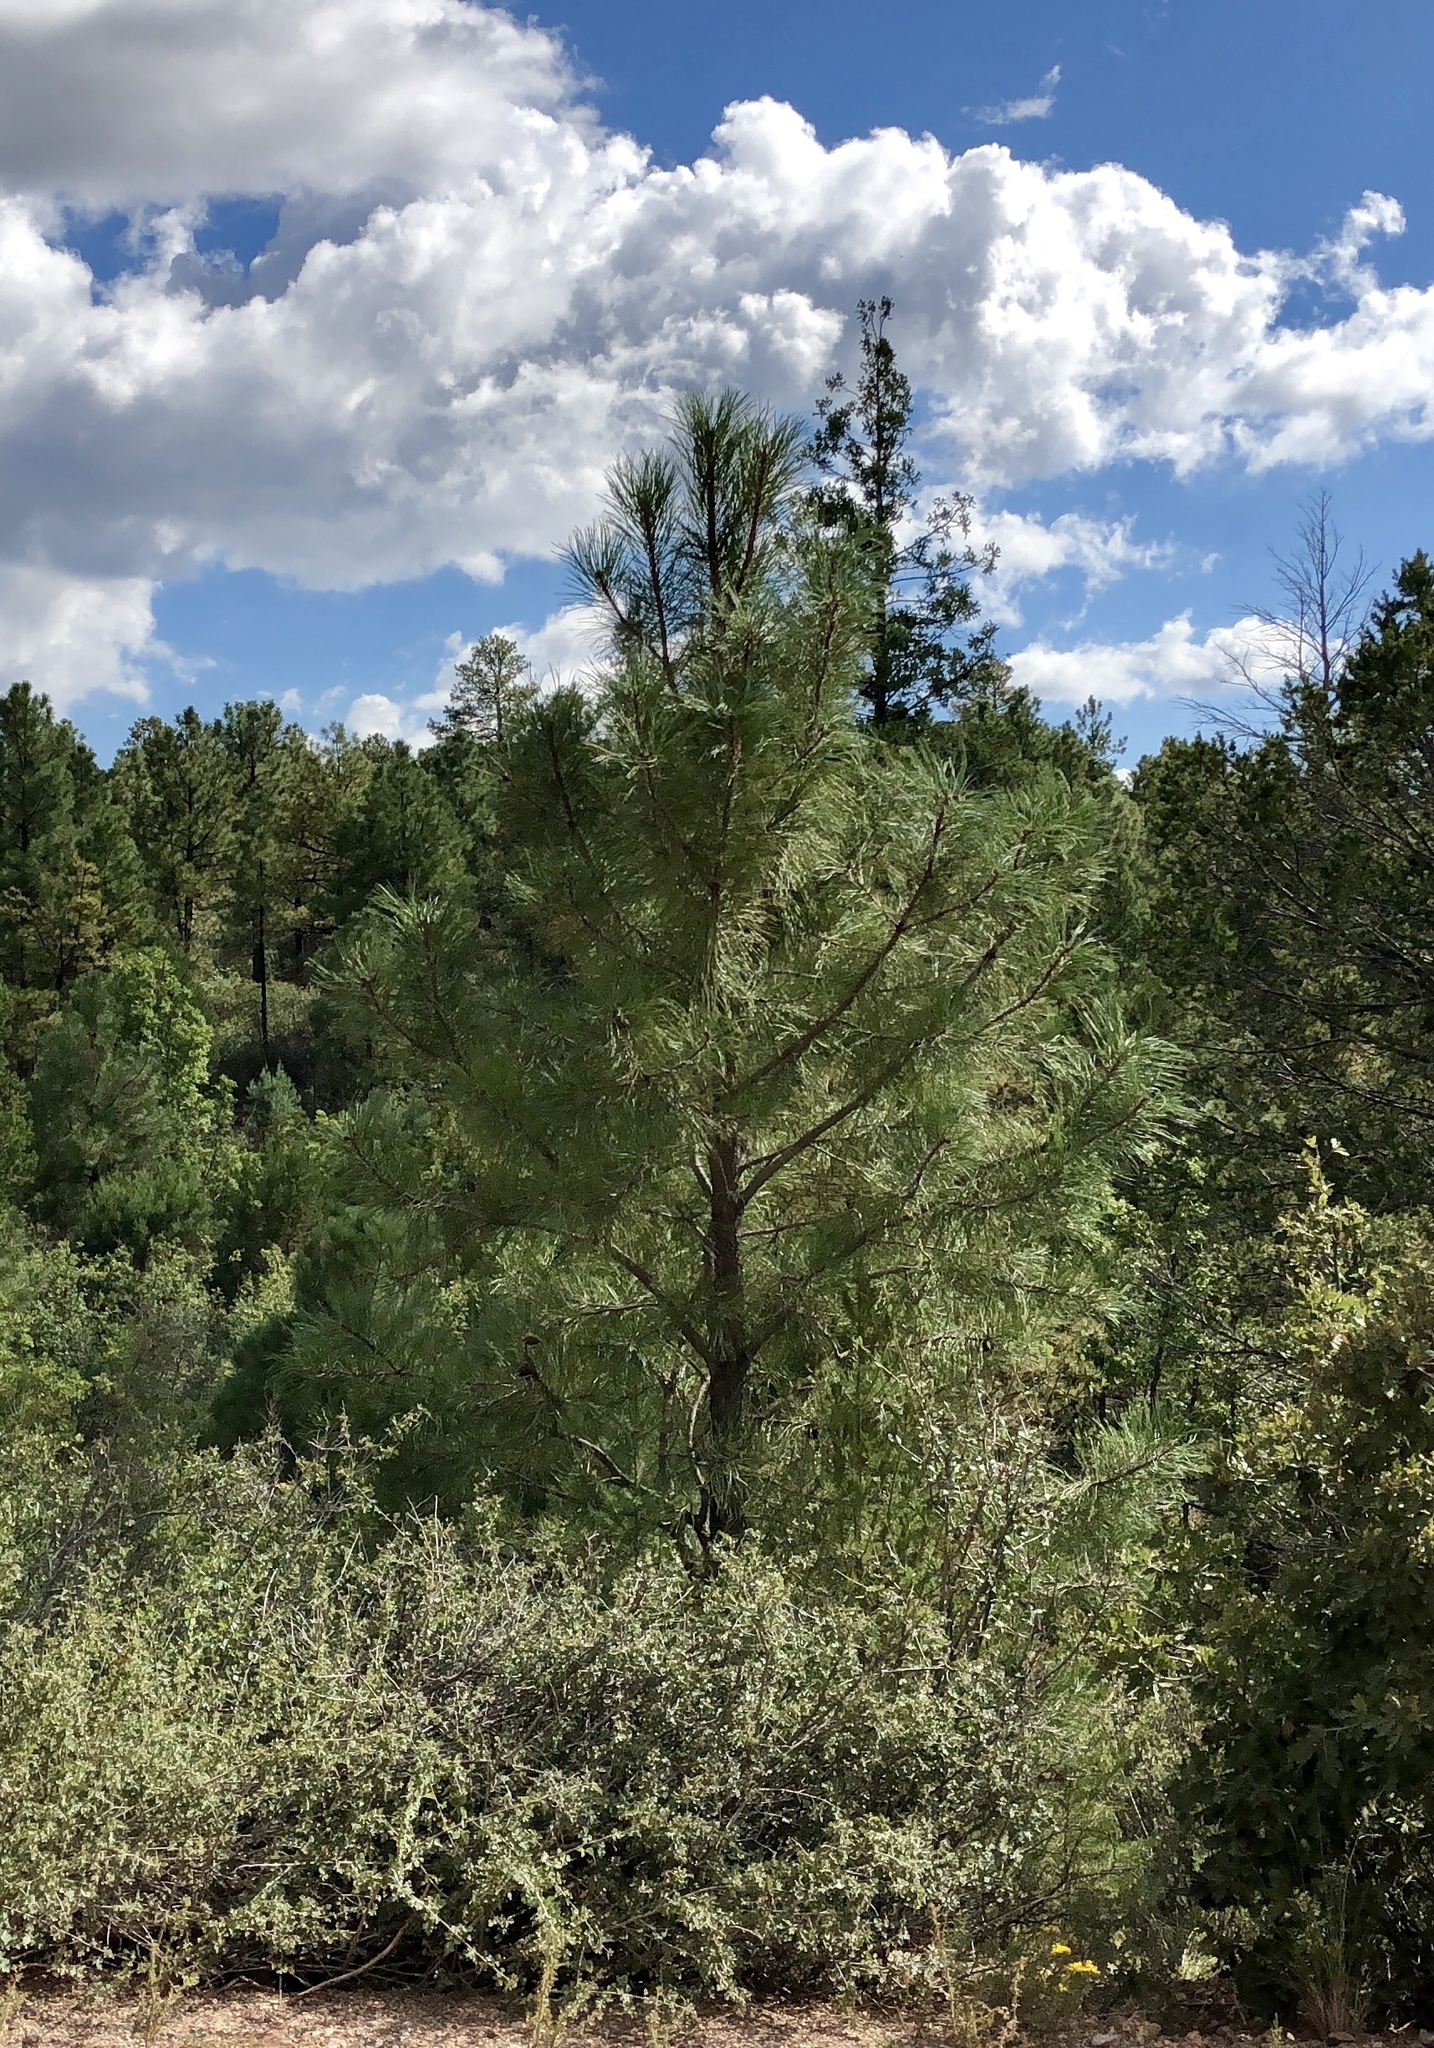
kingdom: Plantae
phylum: Tracheophyta
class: Pinopsida
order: Pinales
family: Pinaceae
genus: Pinus
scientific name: Pinus ponderosa
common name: Western yellow-pine
